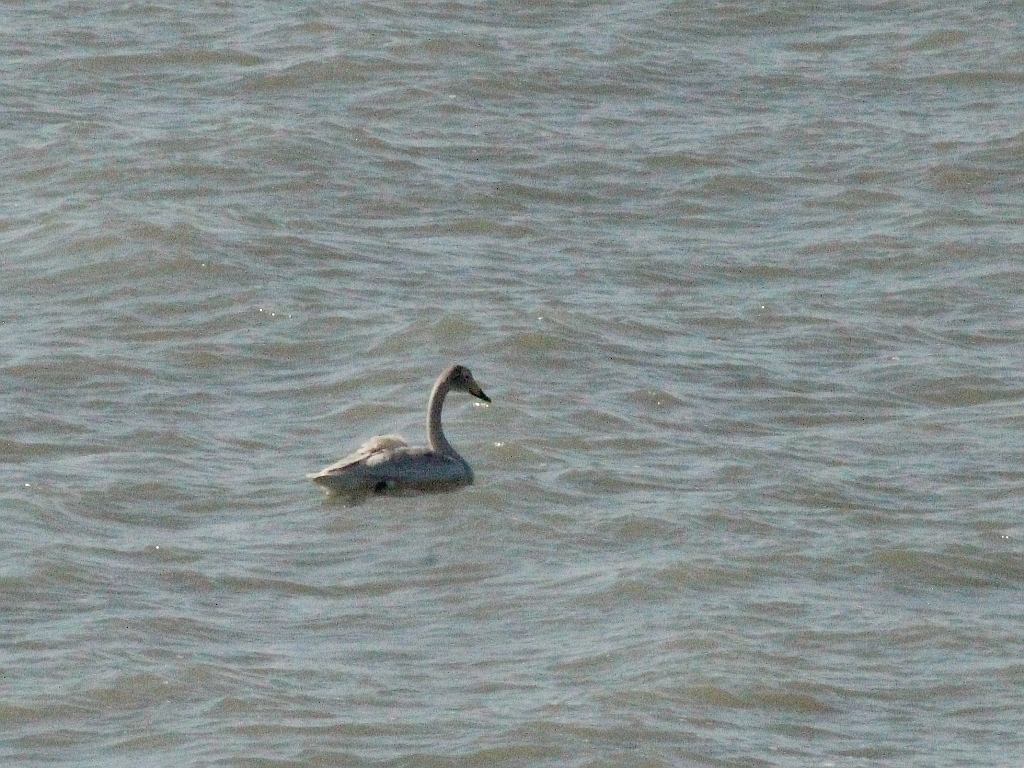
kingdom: Animalia
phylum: Chordata
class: Aves
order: Anseriformes
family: Anatidae
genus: Cygnus
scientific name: Cygnus cygnus
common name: Whooper swan
